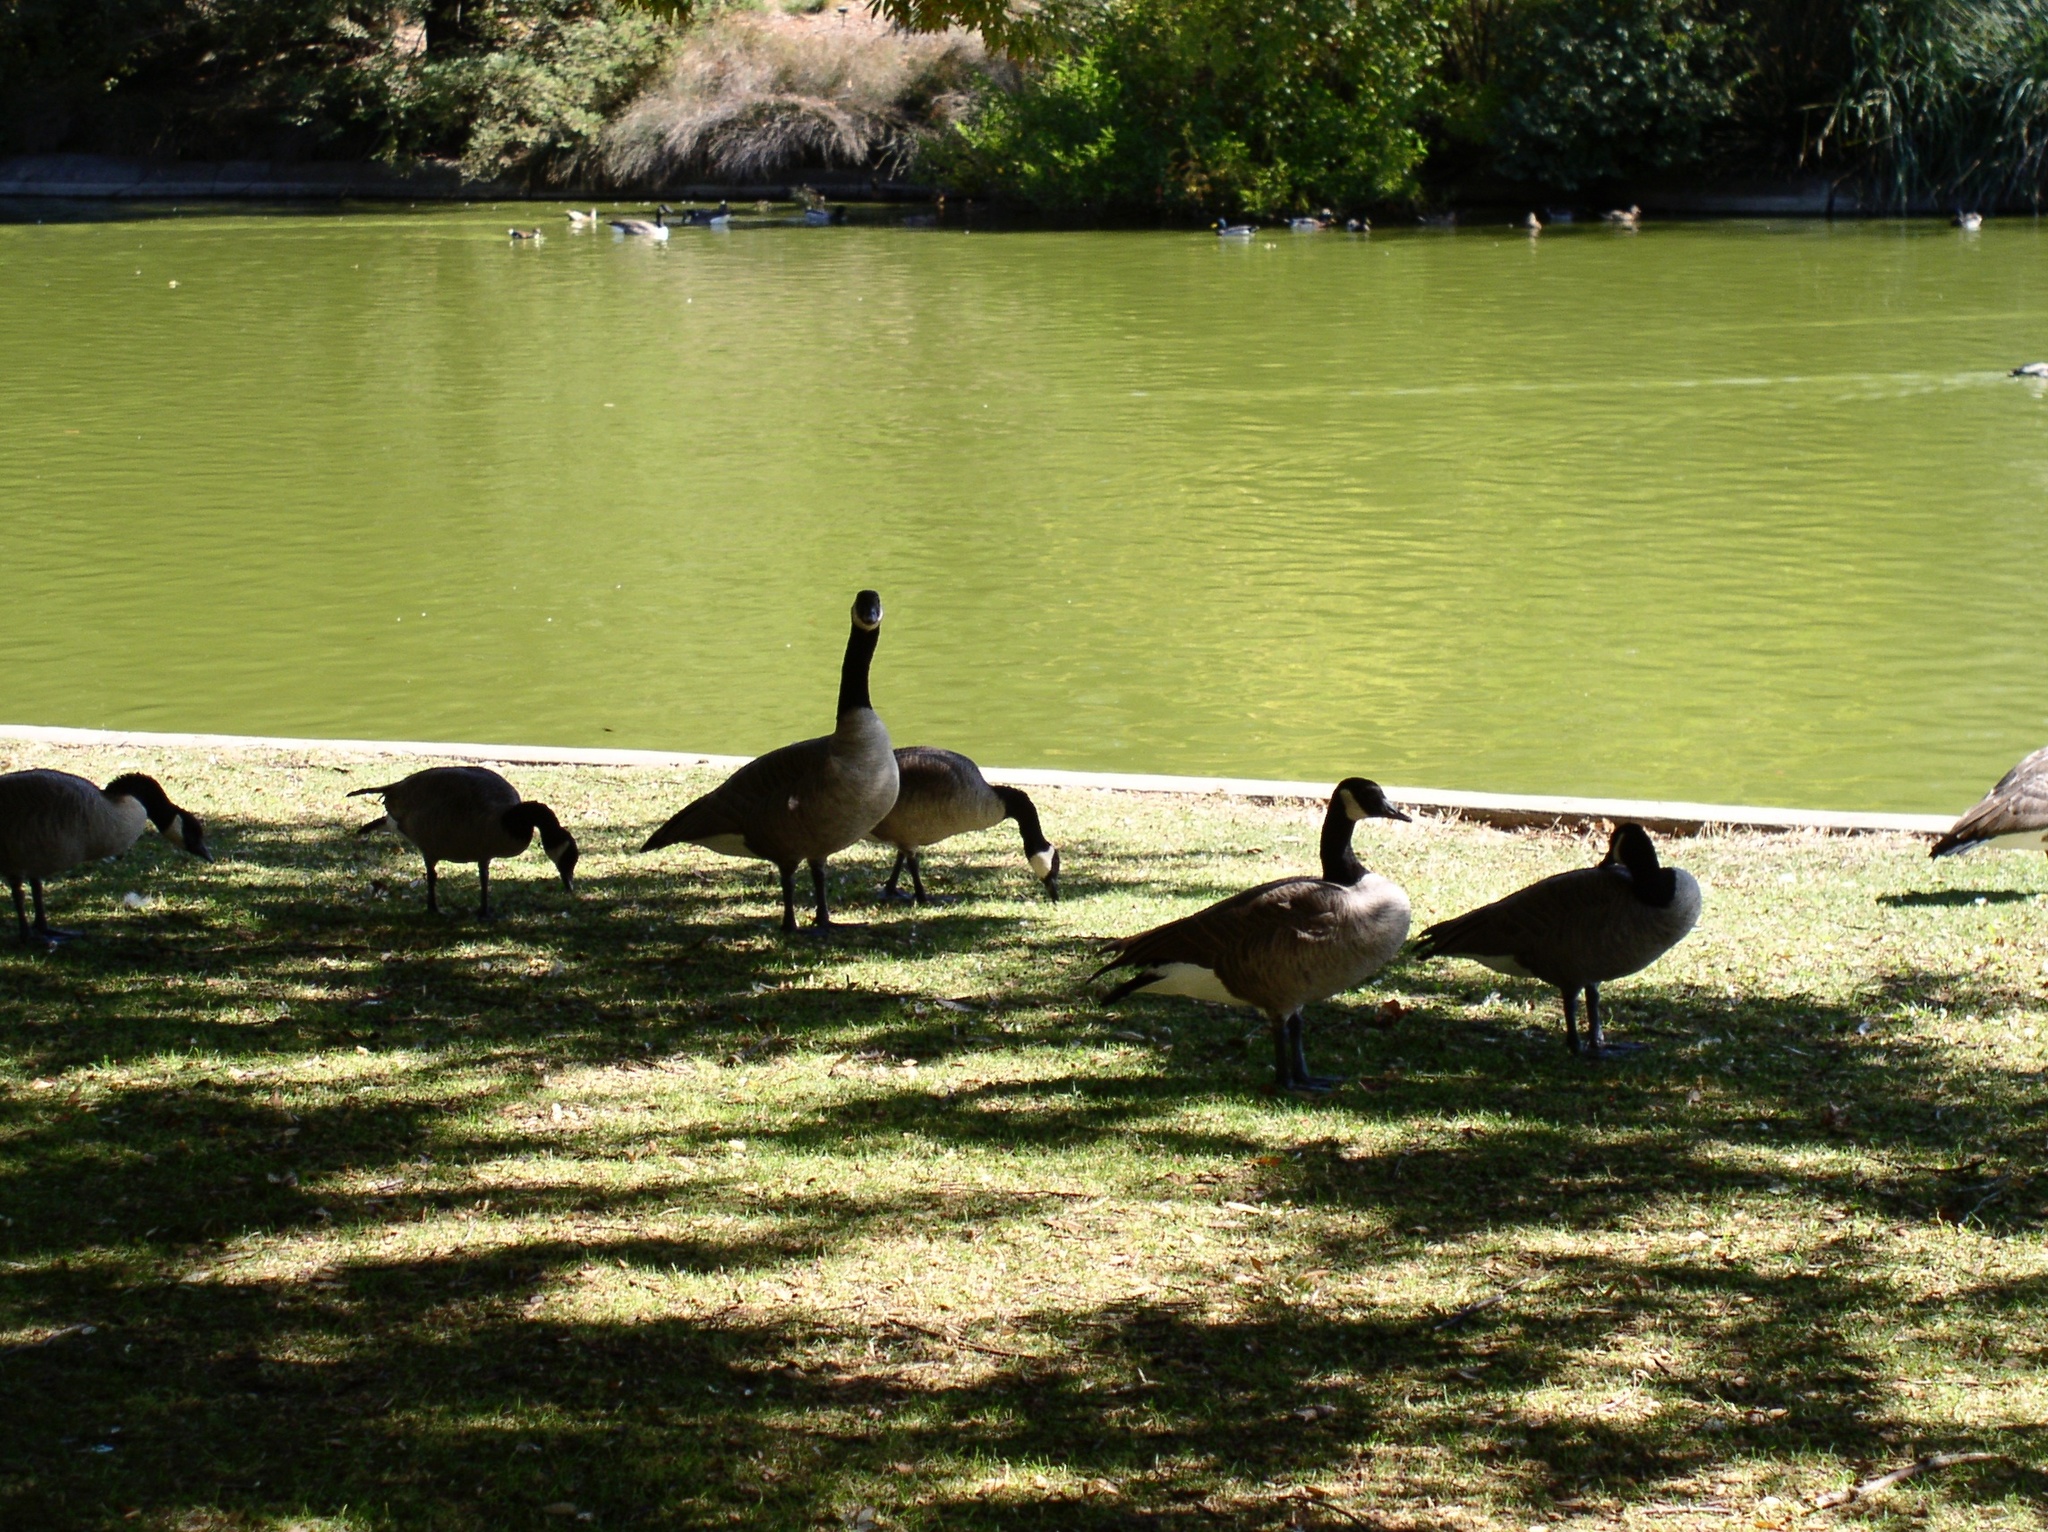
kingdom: Animalia
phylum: Chordata
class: Aves
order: Anseriformes
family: Anatidae
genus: Branta
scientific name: Branta canadensis
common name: Canada goose
